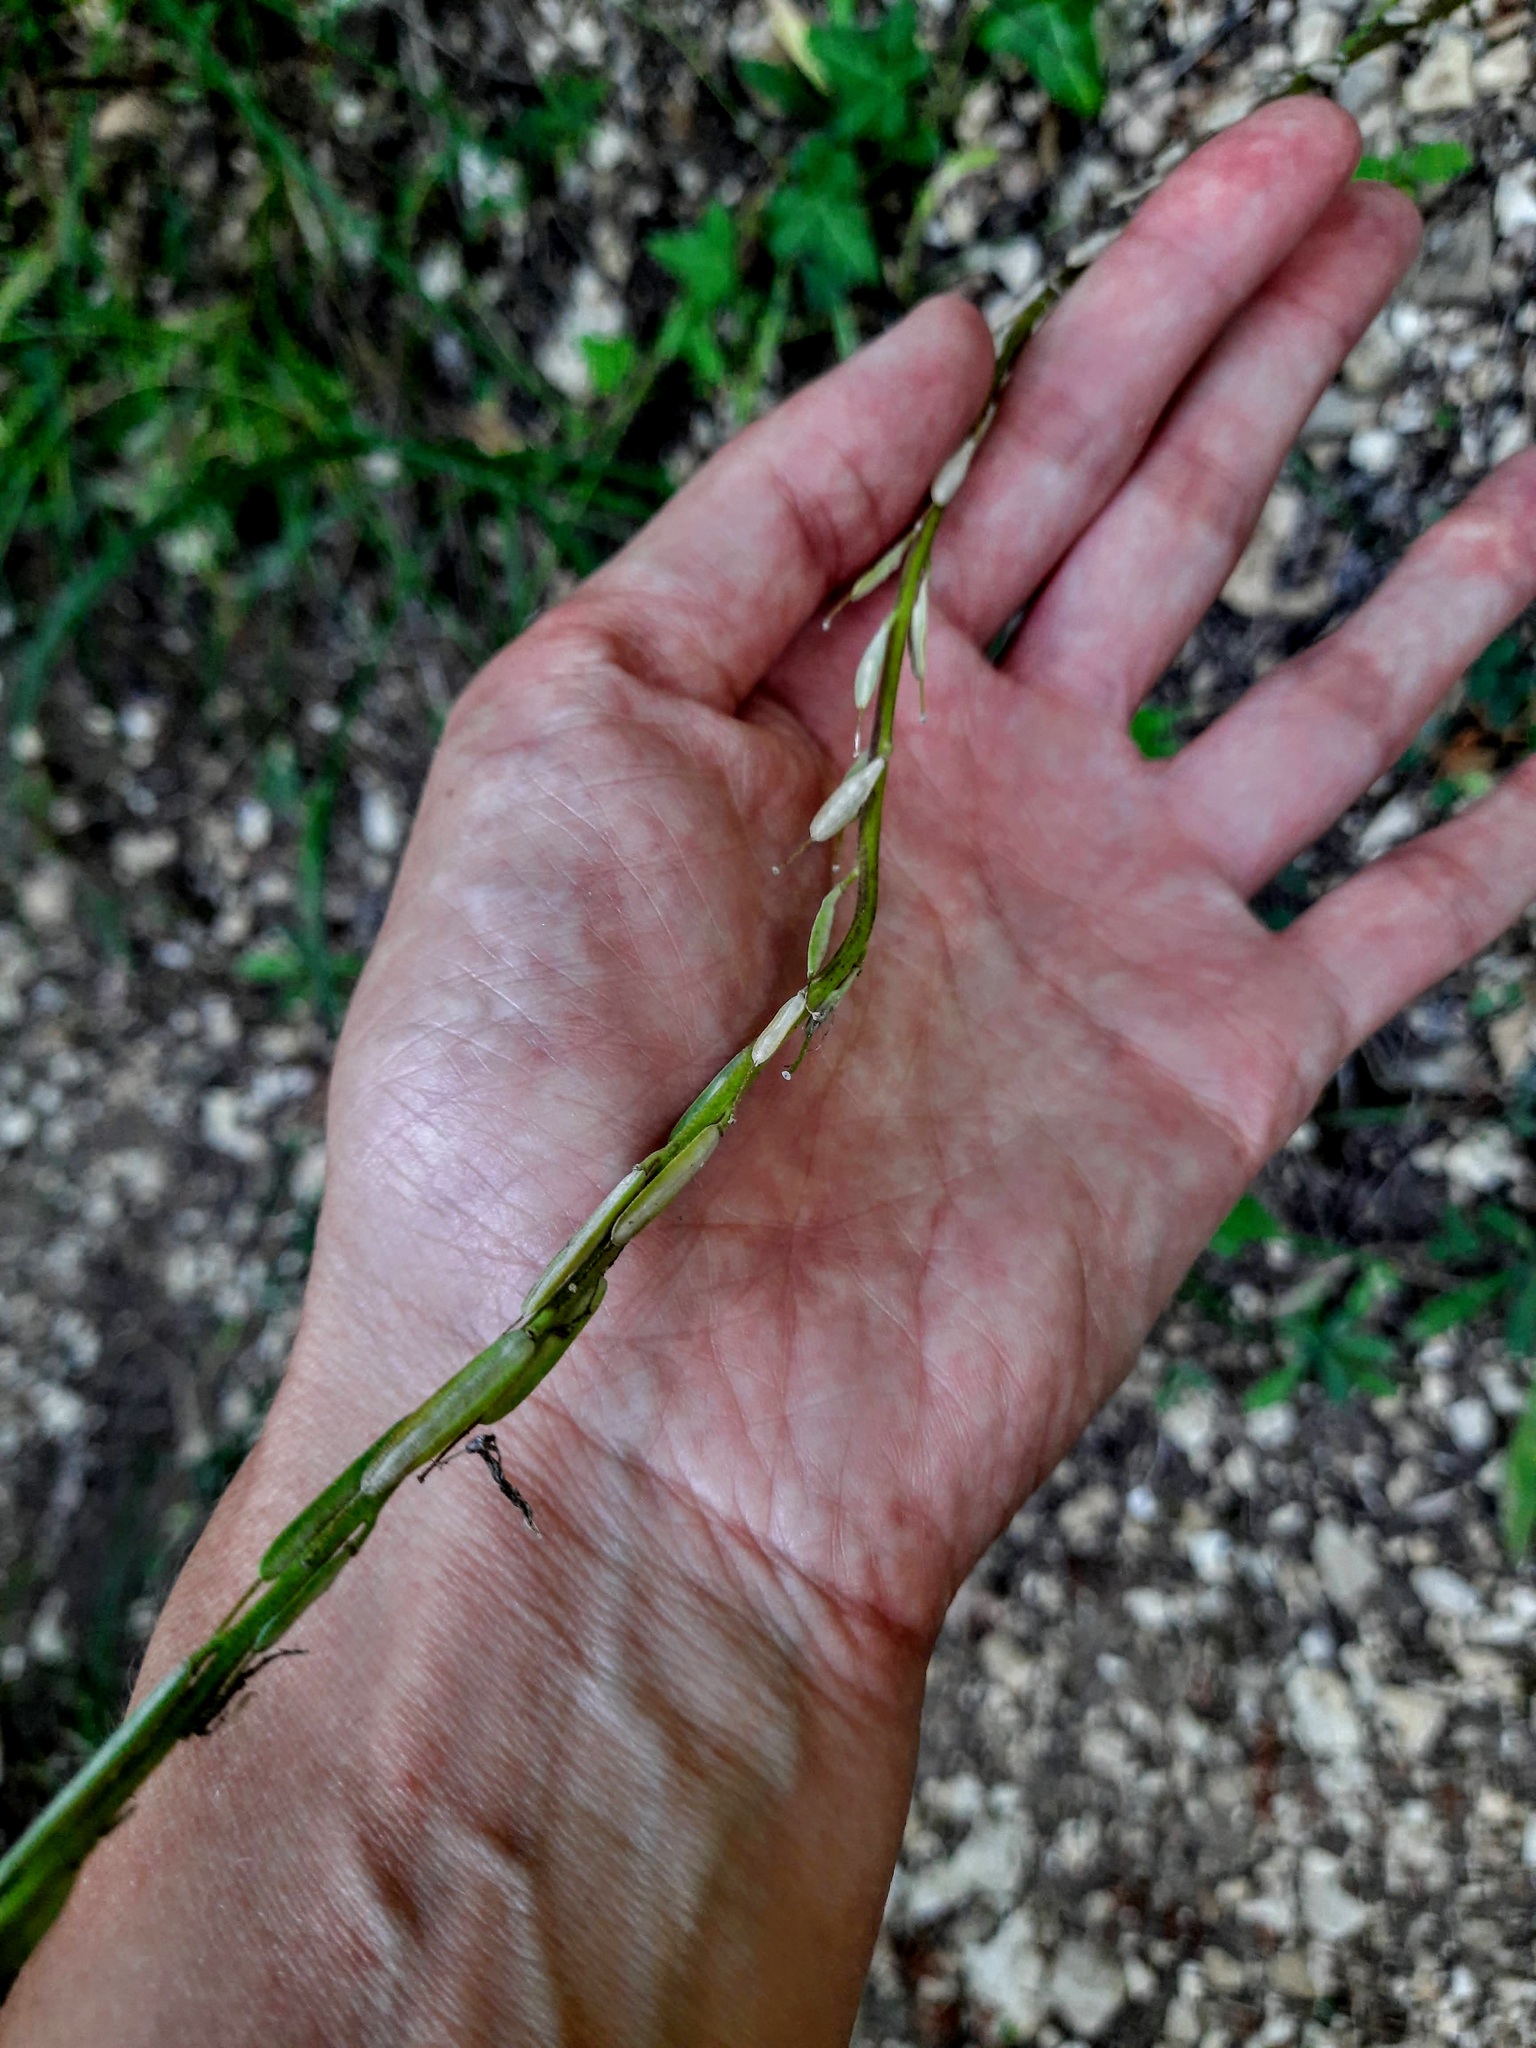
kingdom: Plantae
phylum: Tracheophyta
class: Magnoliopsida
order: Brassicales
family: Brassicaceae
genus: Erysimum
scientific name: Erysimum cuspidatum
